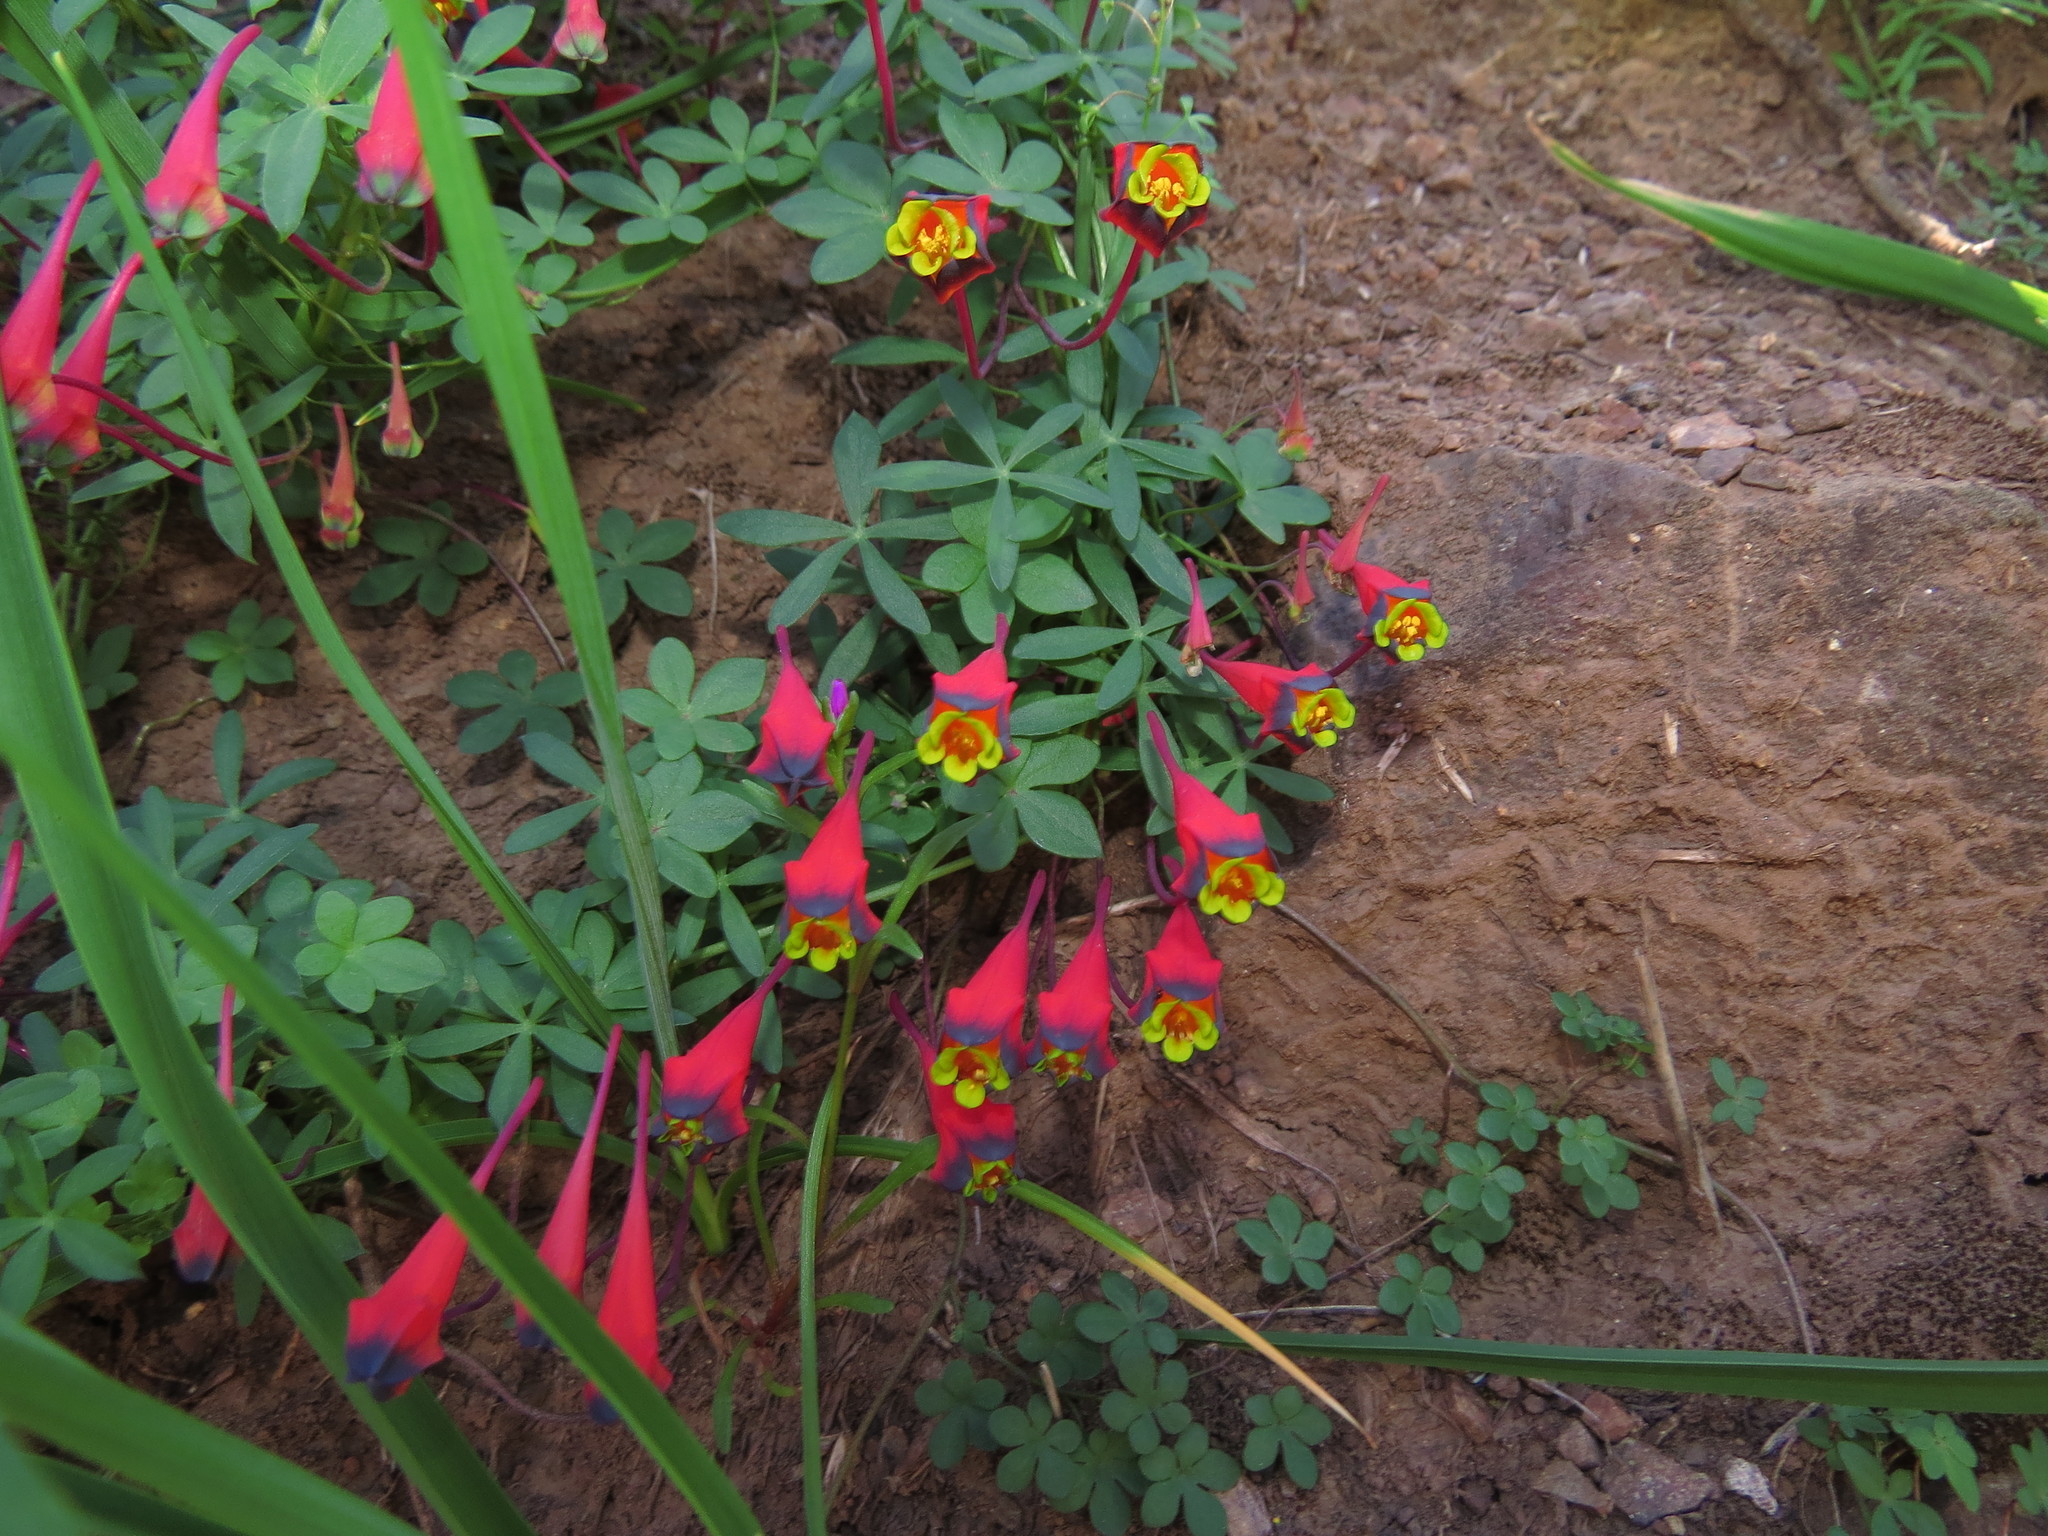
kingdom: Plantae
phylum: Tracheophyta
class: Magnoliopsida
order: Brassicales
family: Tropaeolaceae
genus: Tropaeolum
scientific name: Tropaeolum tricolor
